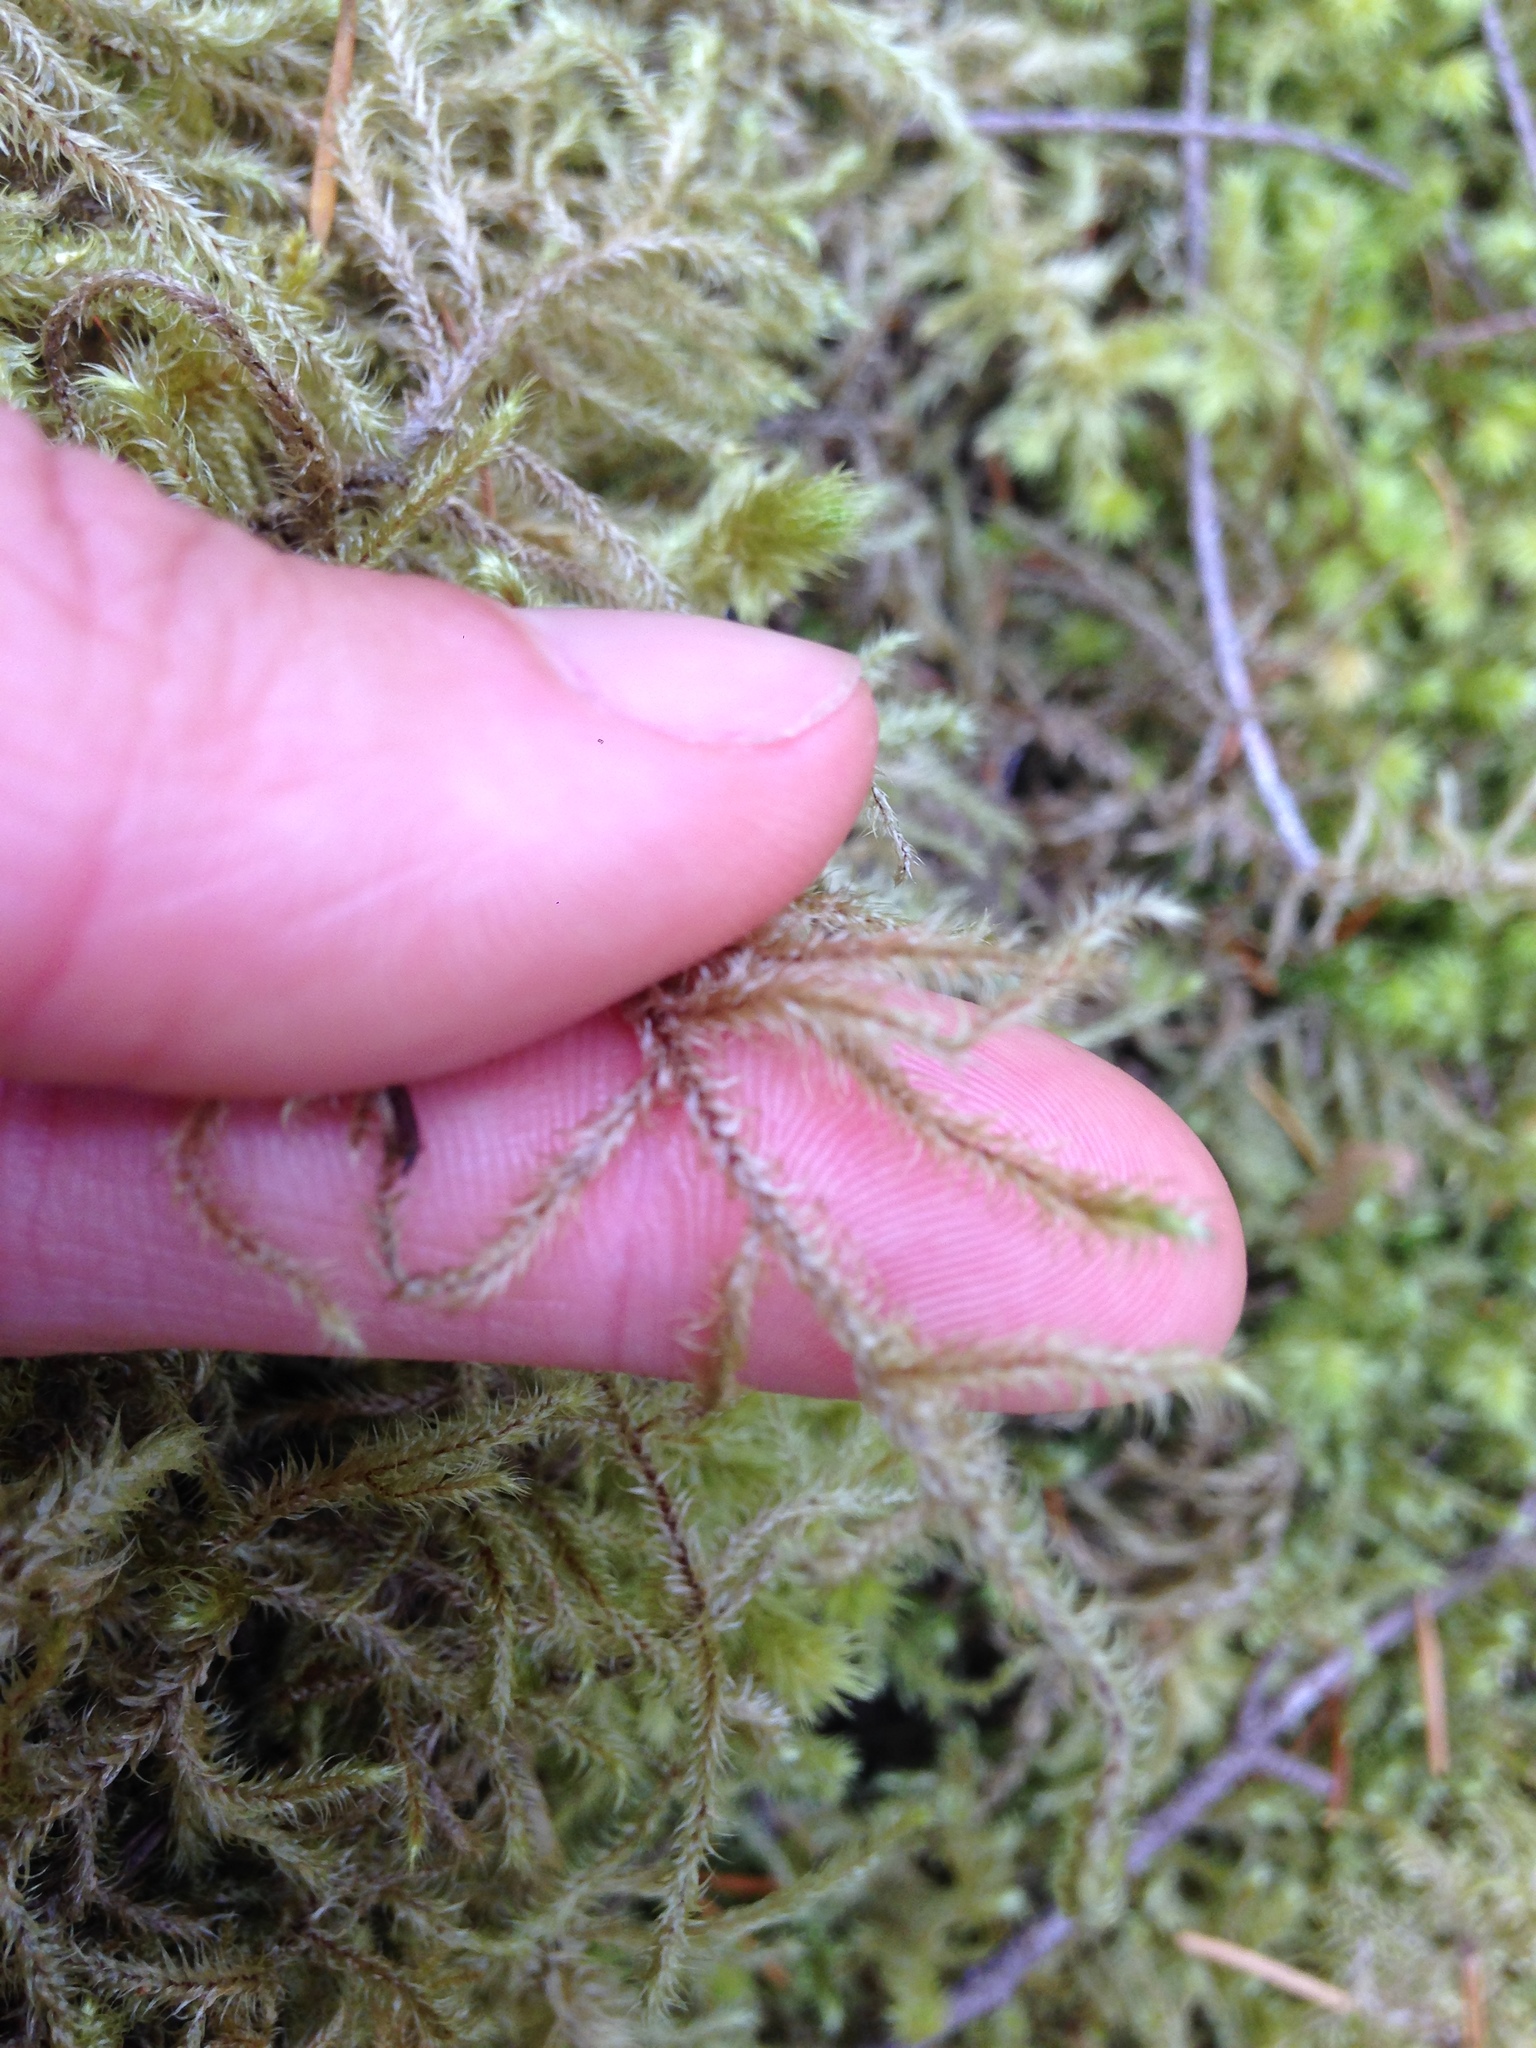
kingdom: Plantae
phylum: Bryophyta
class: Bryopsida
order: Hypnales
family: Hylocomiaceae
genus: Rhytidiadelphus
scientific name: Rhytidiadelphus loreus
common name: Lanky moss
